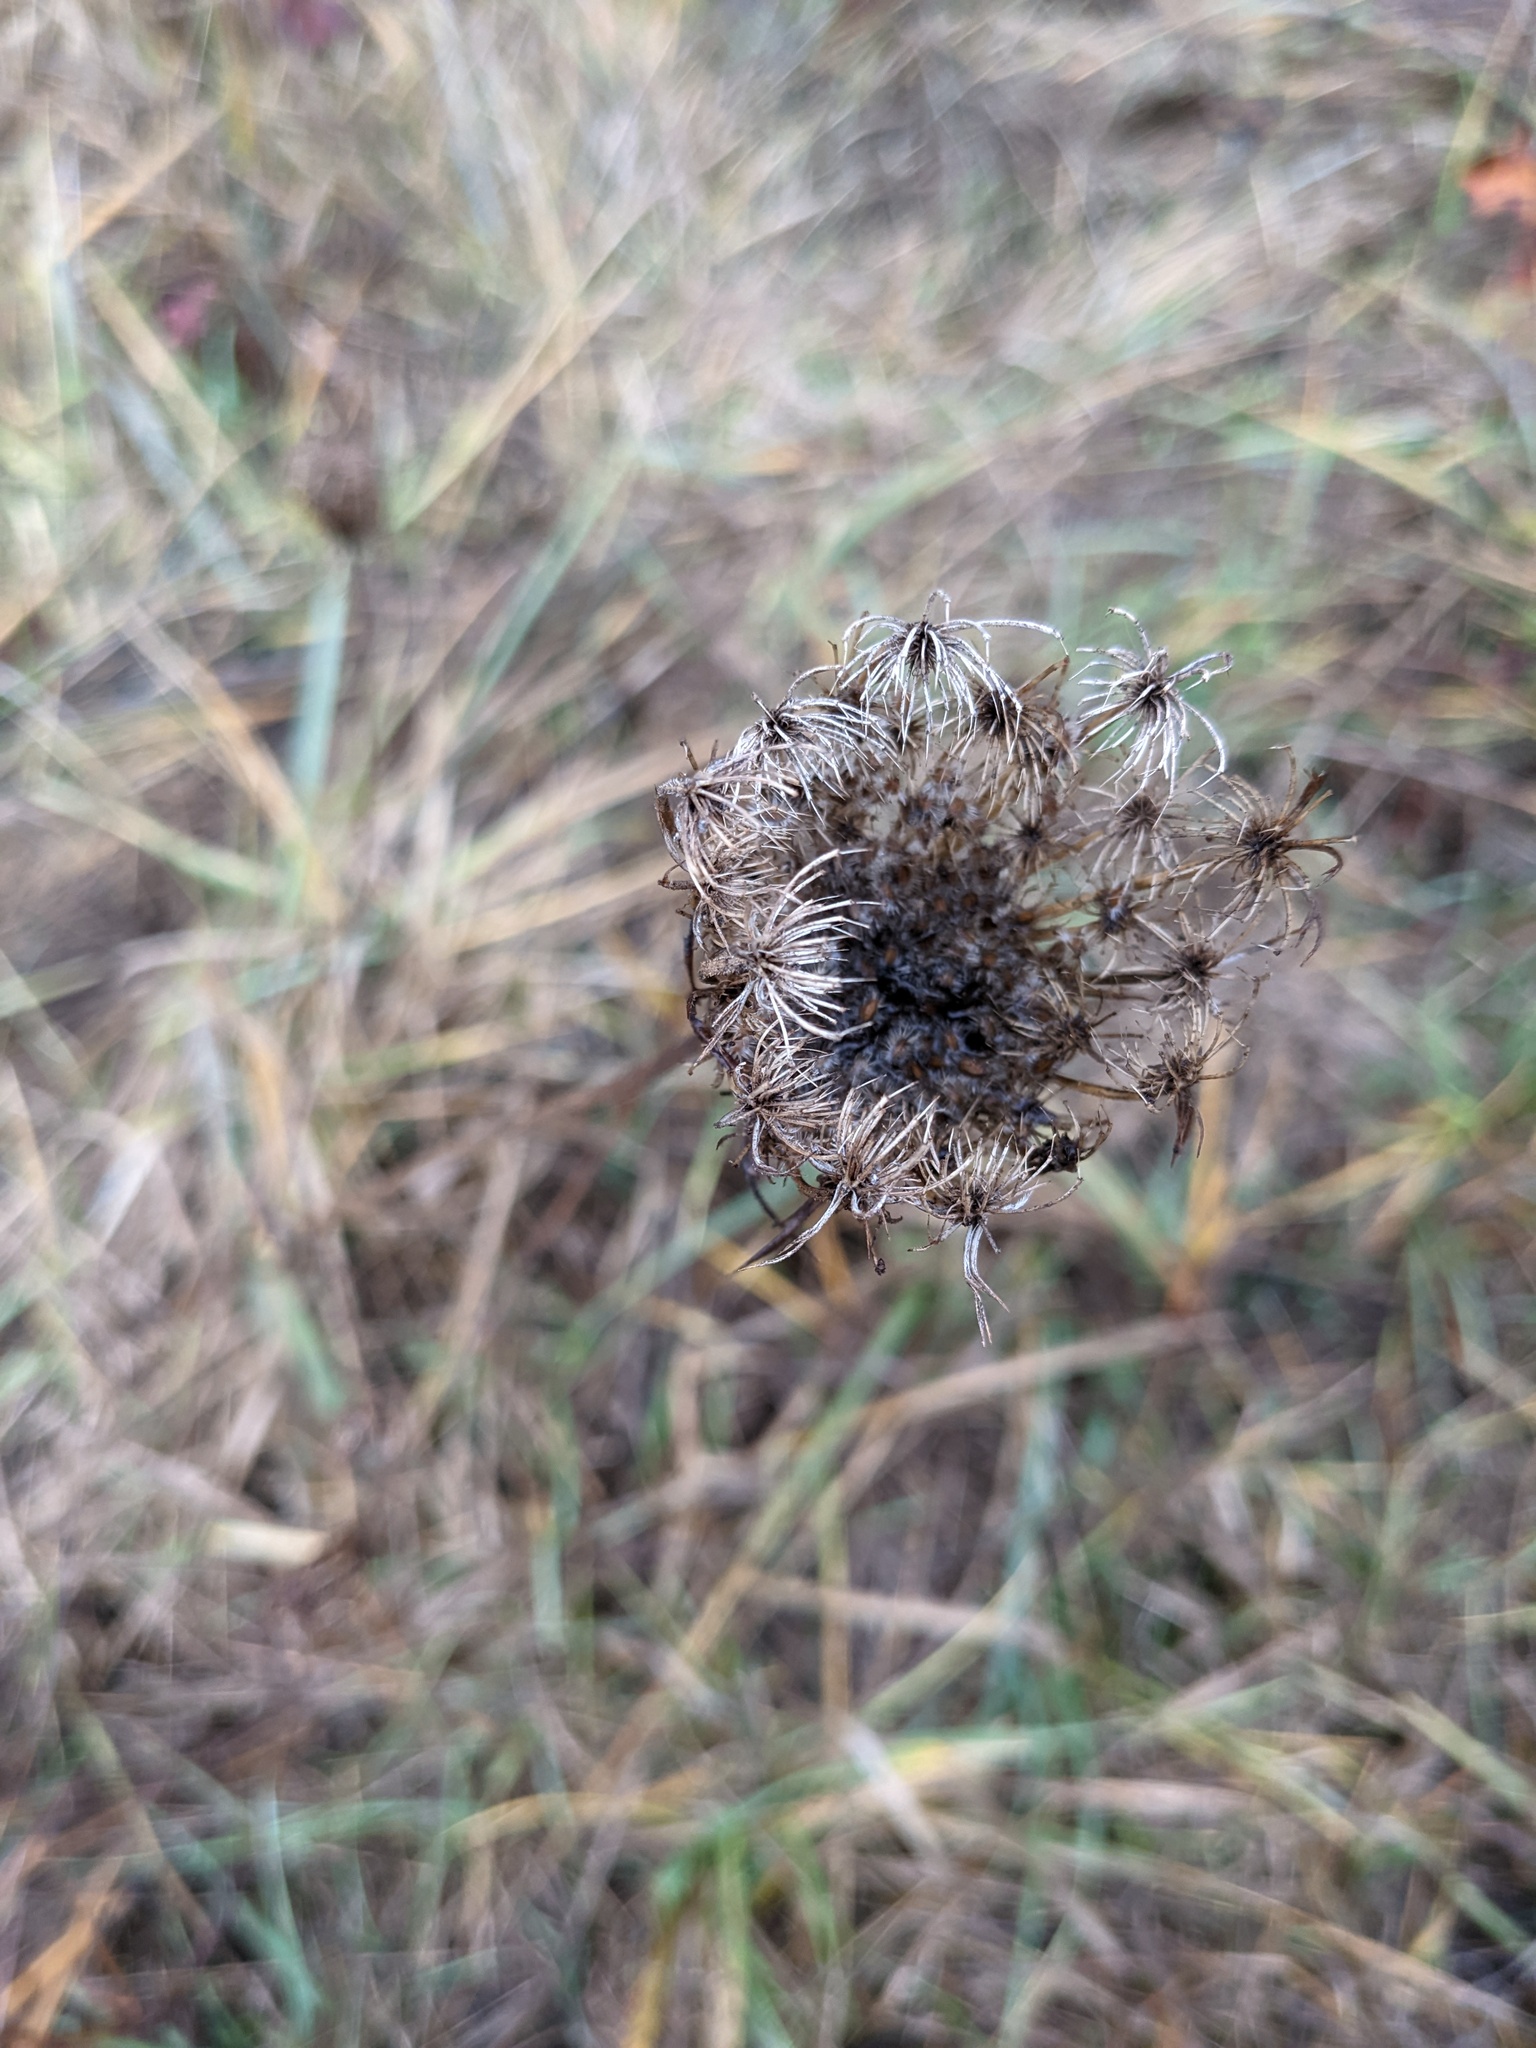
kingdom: Plantae
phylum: Tracheophyta
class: Magnoliopsida
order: Apiales
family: Apiaceae
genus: Daucus
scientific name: Daucus carota
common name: Wild carrot
